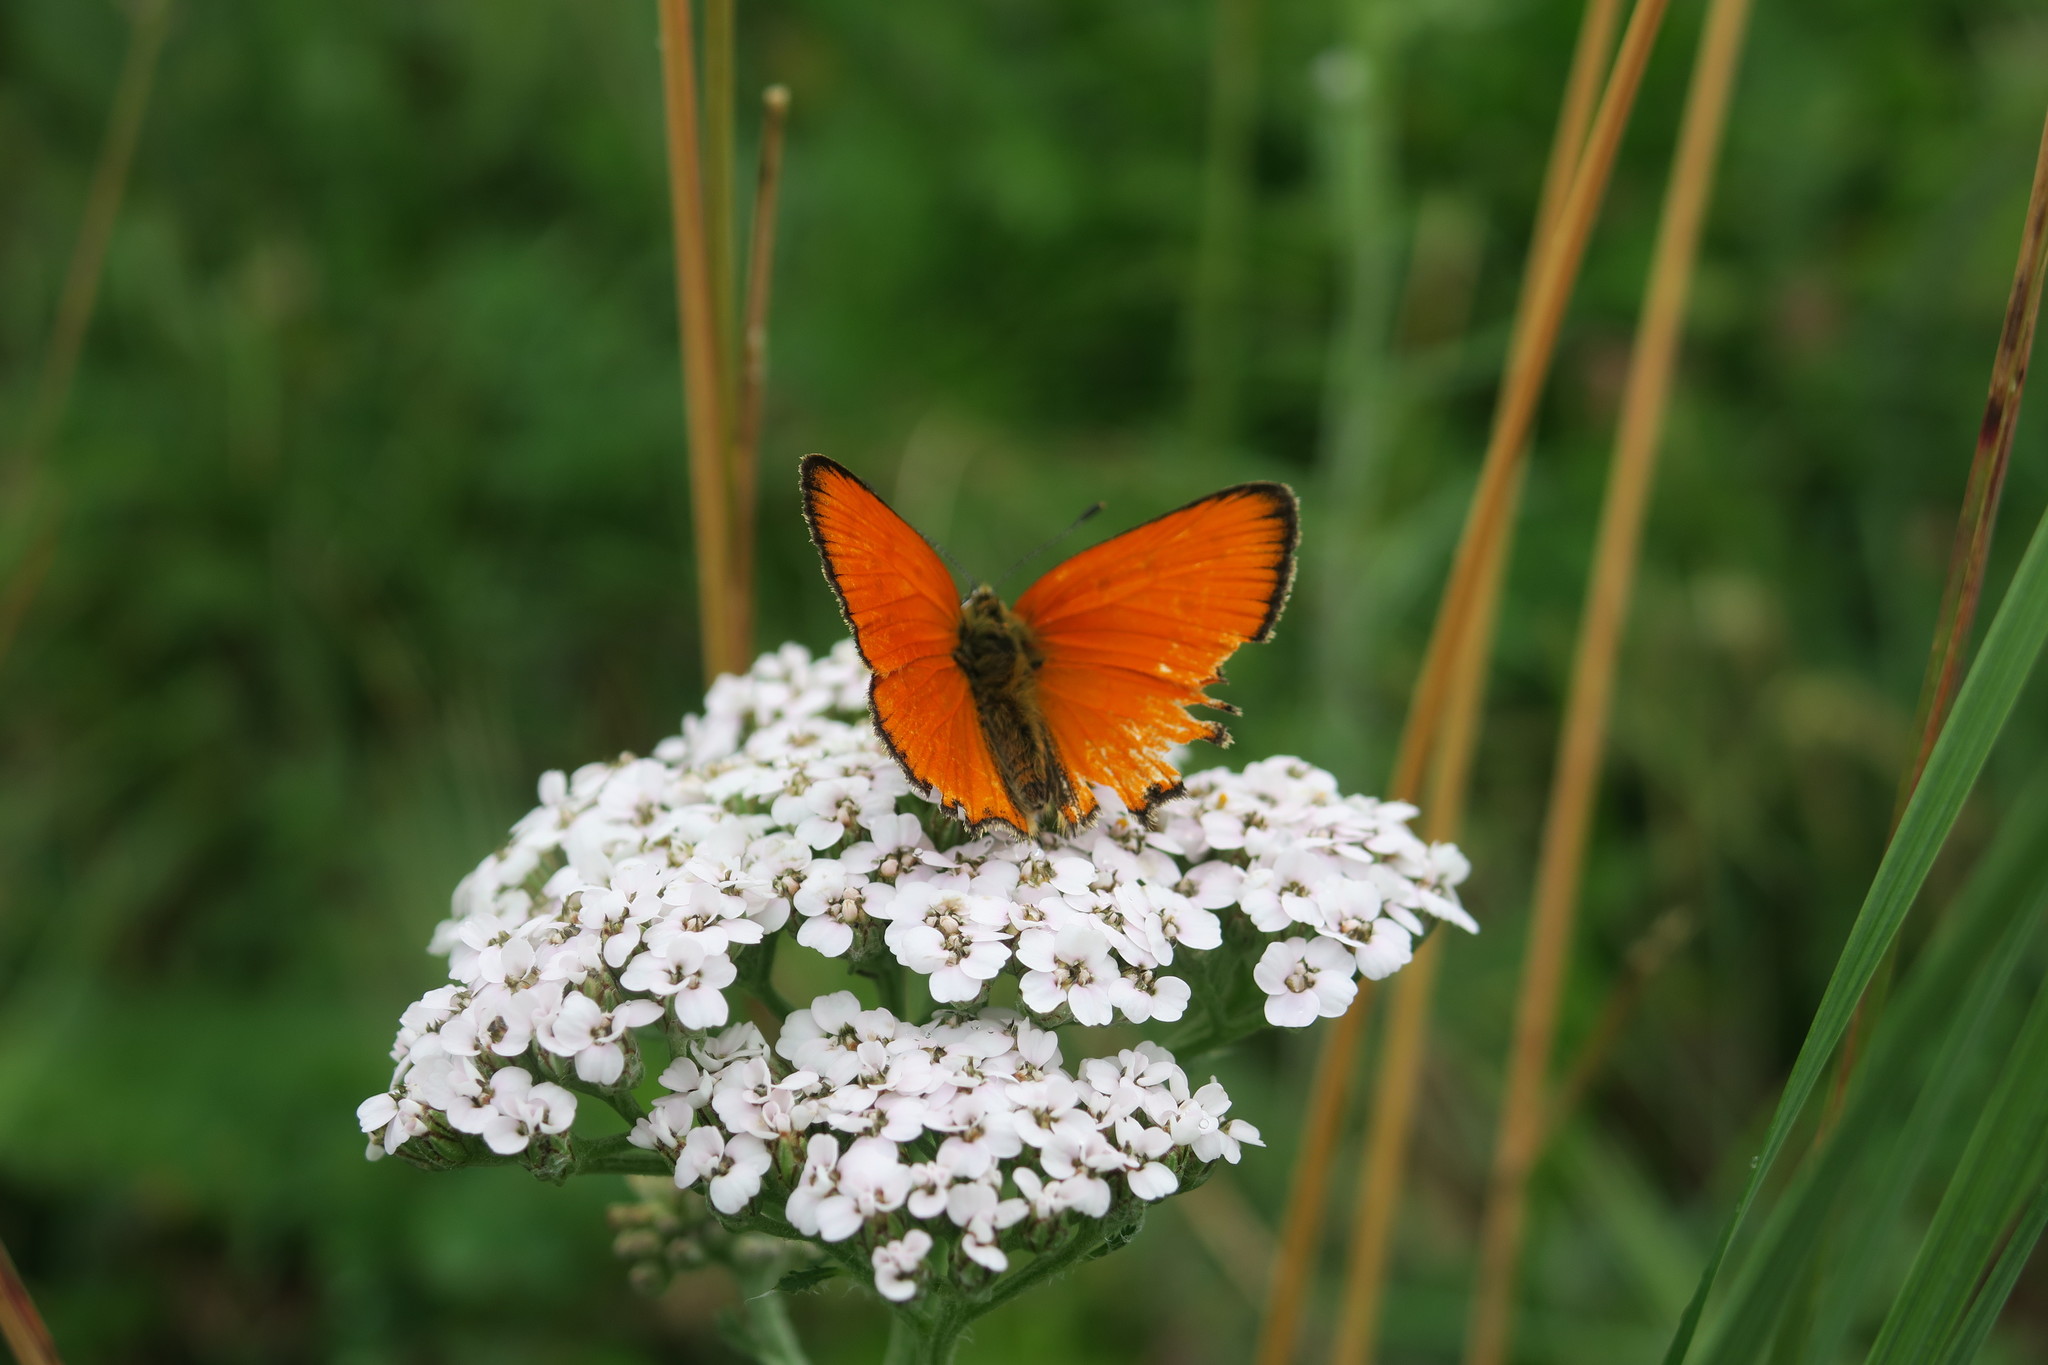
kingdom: Animalia
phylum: Arthropoda
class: Insecta
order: Lepidoptera
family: Lycaenidae
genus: Lycaena
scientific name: Lycaena virgaureae
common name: Scarce copper
